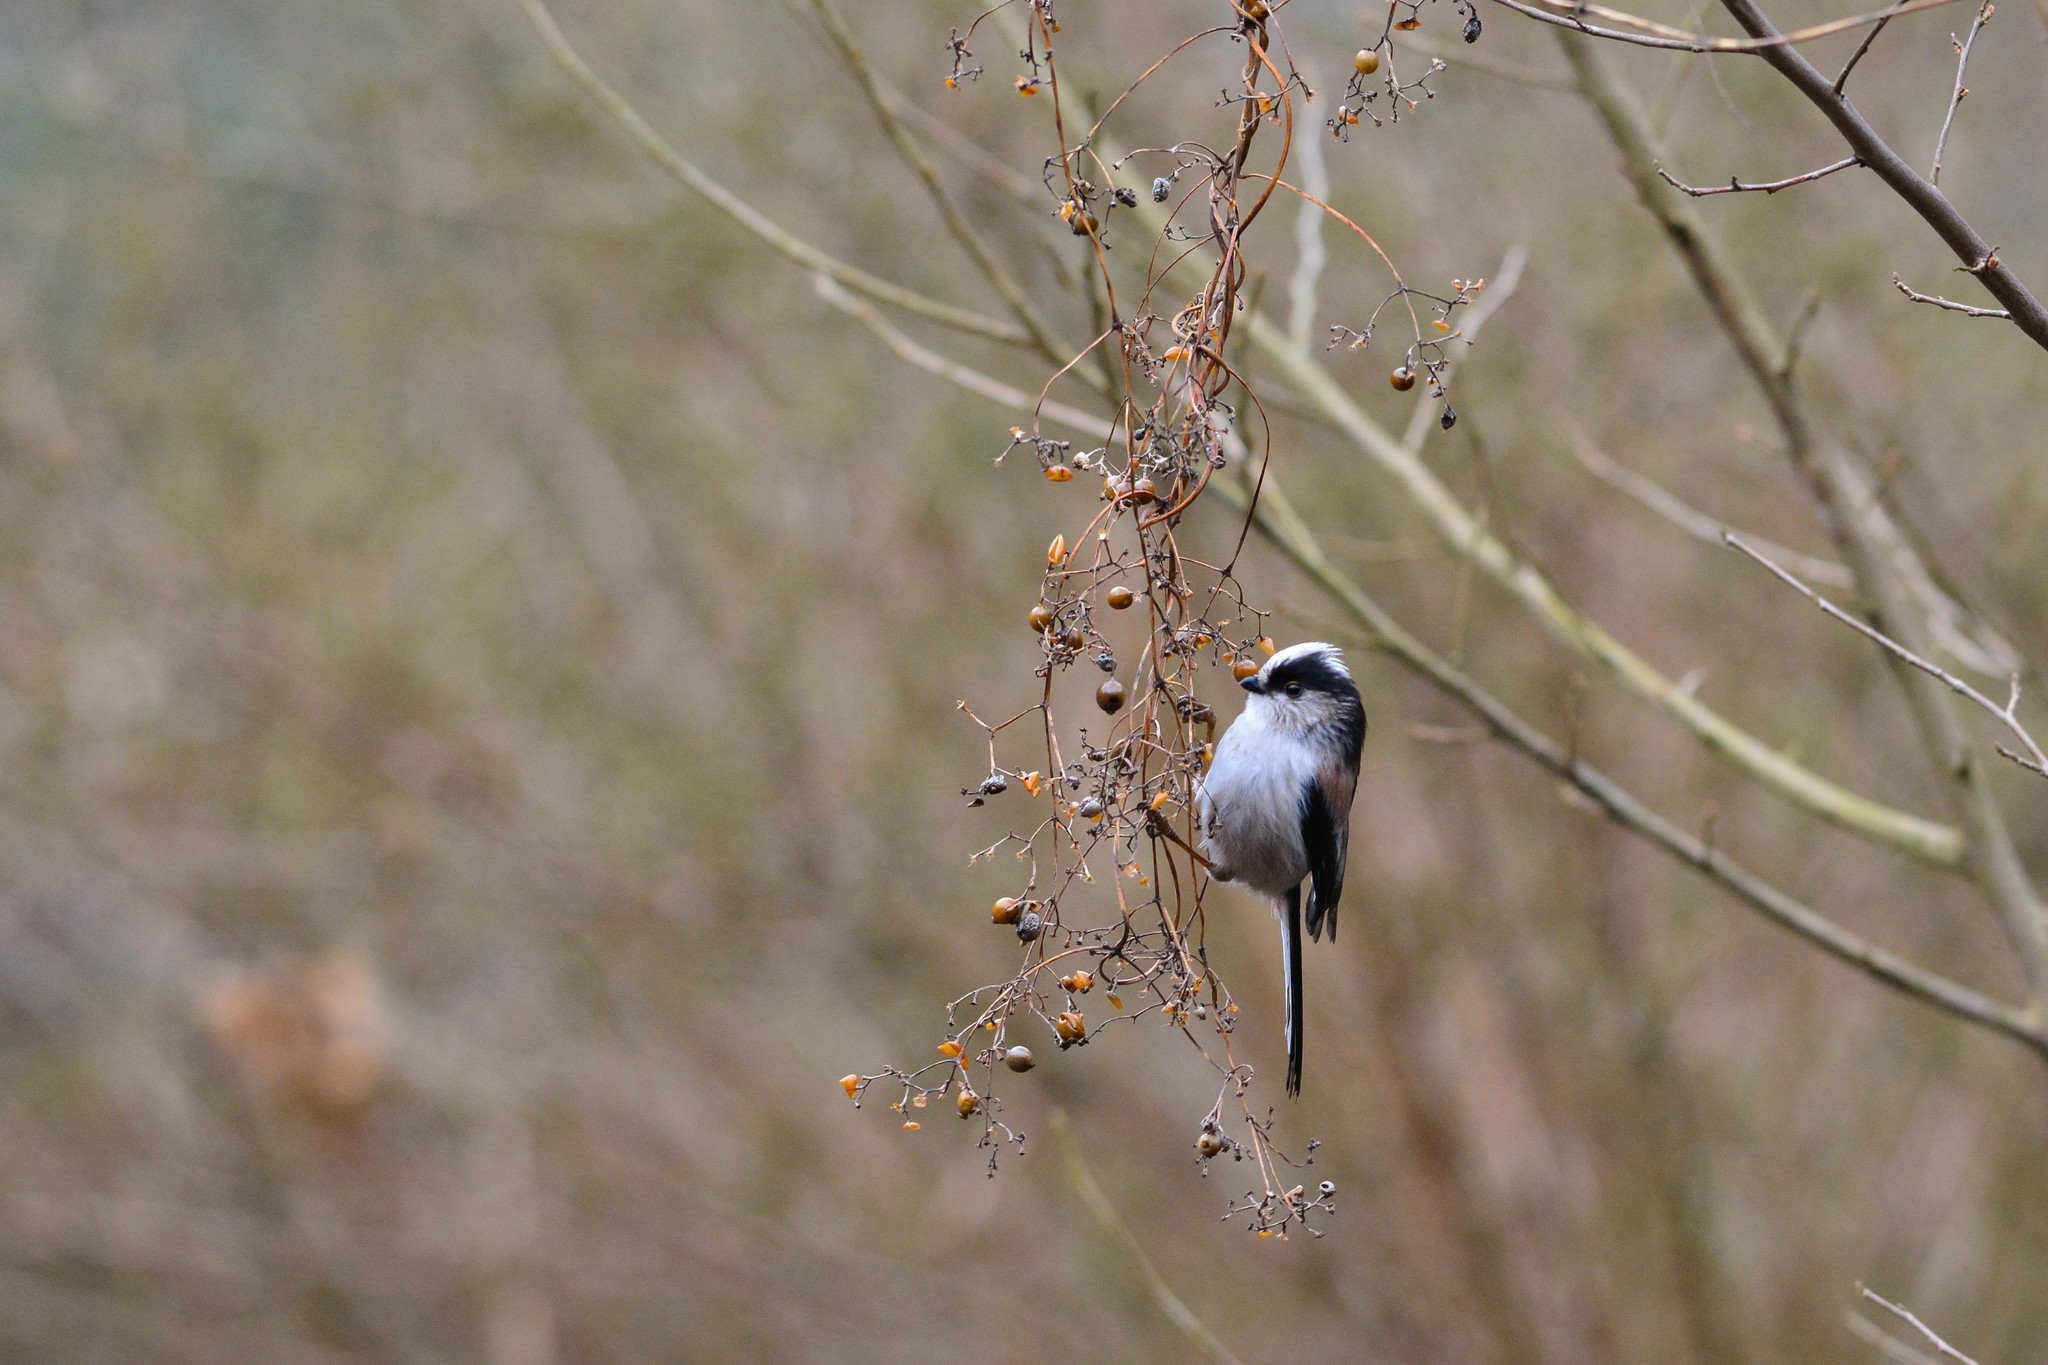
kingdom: Animalia
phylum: Chordata
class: Aves
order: Passeriformes
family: Aegithalidae
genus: Aegithalos
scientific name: Aegithalos caudatus
